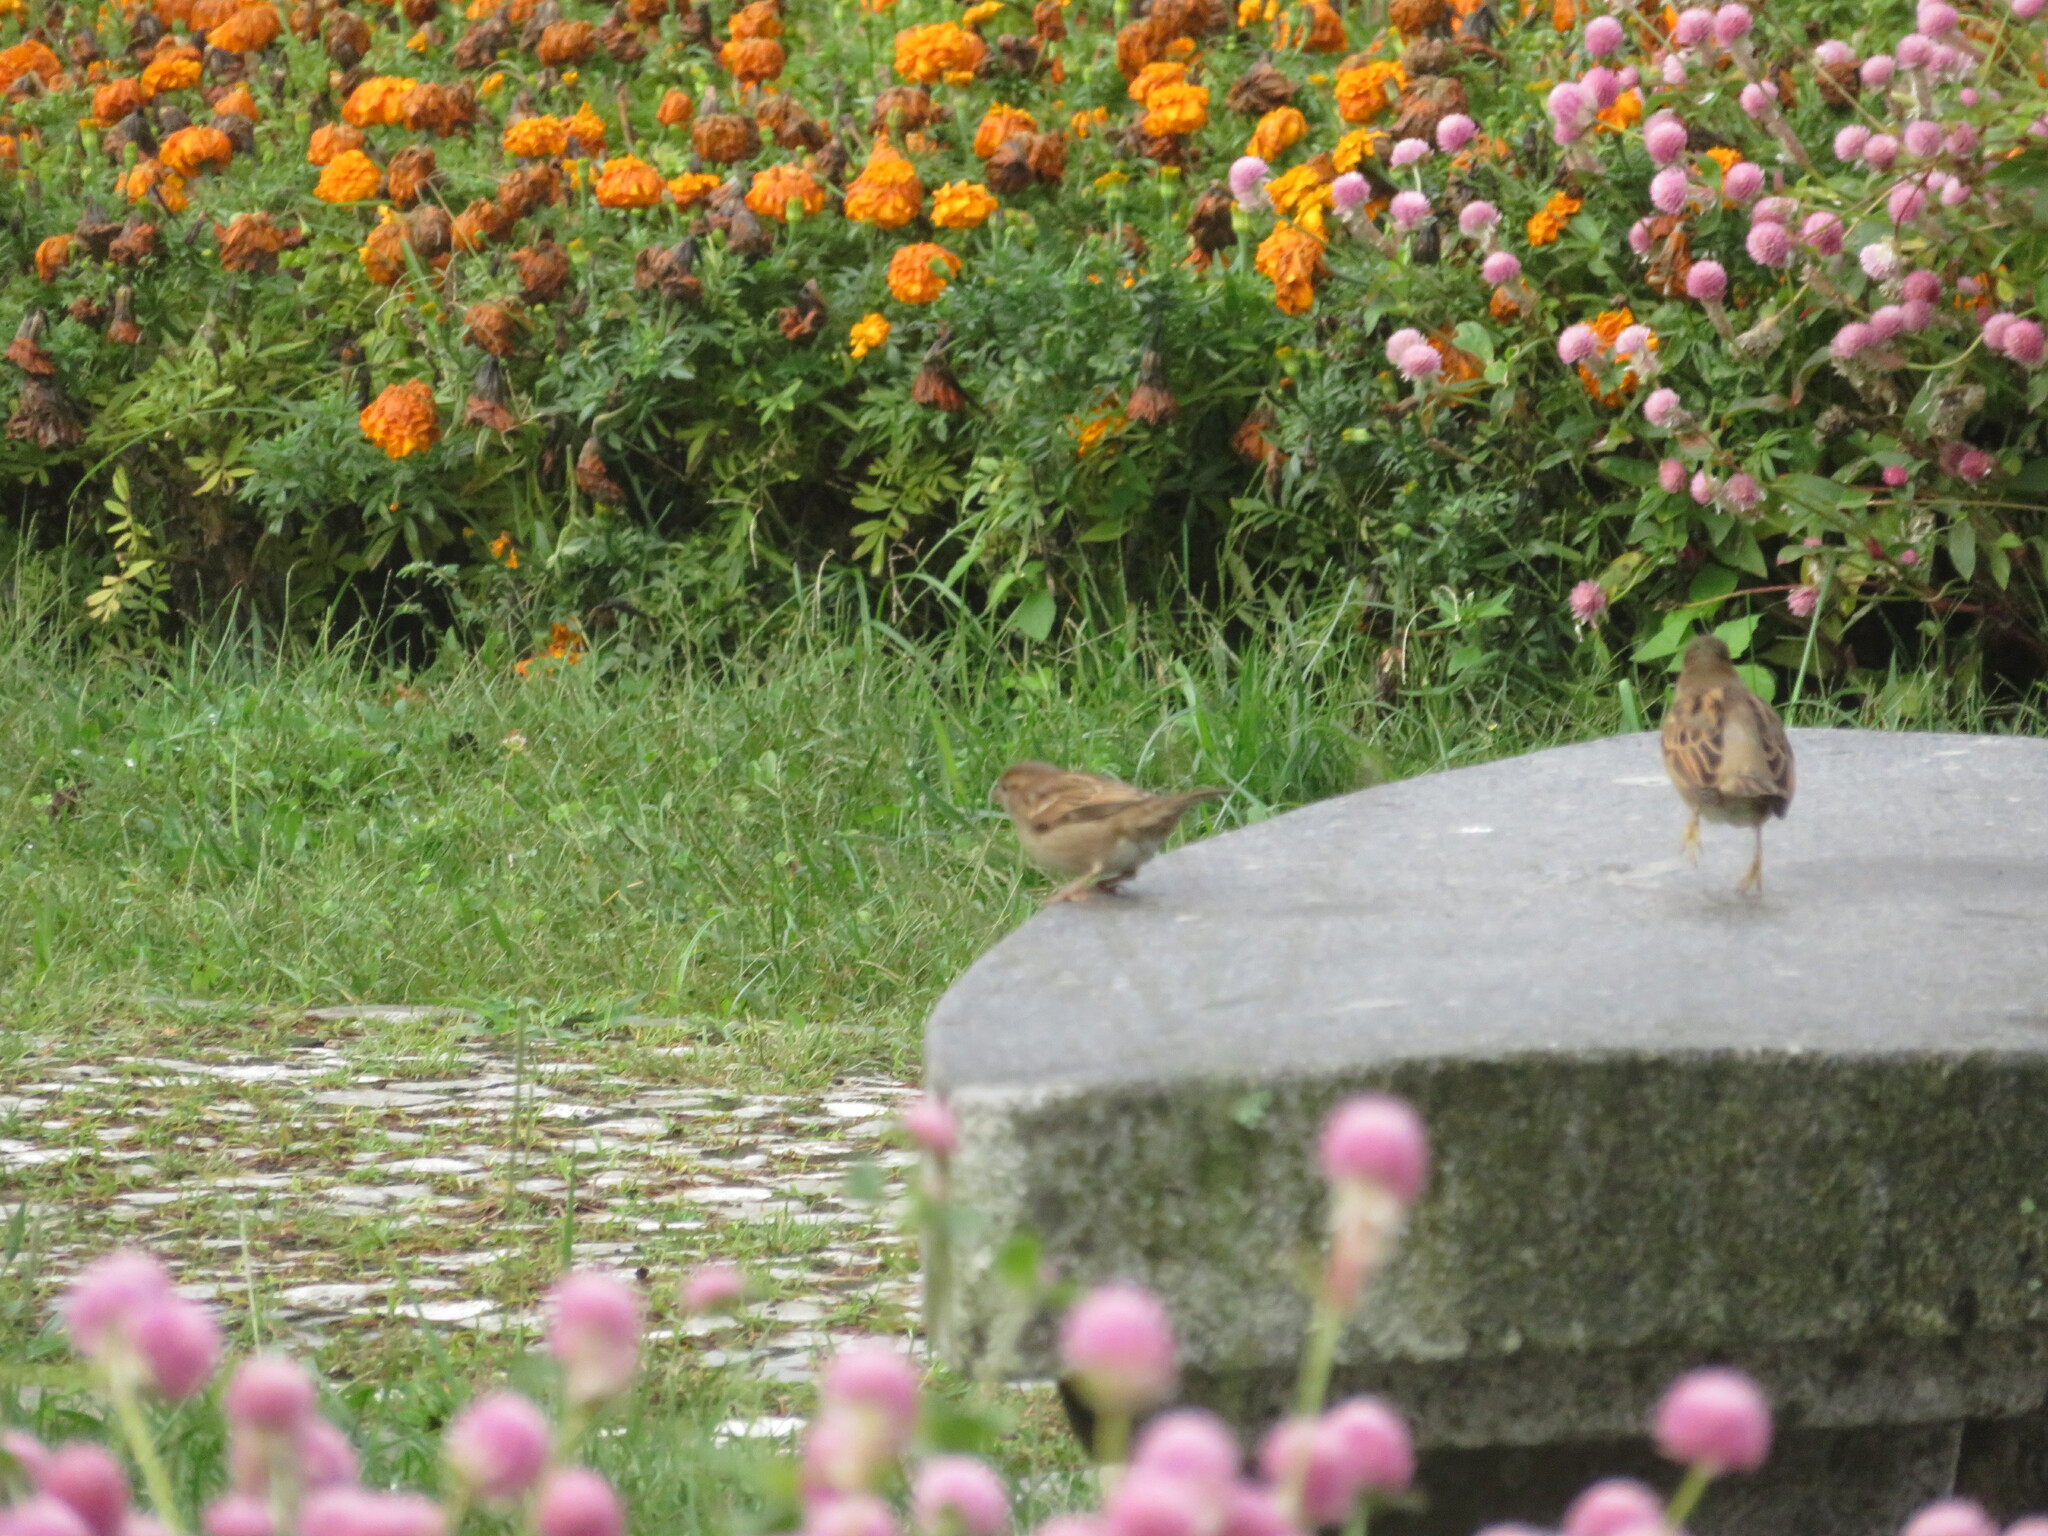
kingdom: Animalia
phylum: Chordata
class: Aves
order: Passeriformes
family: Passeridae
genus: Passer
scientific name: Passer domesticus
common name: House sparrow
